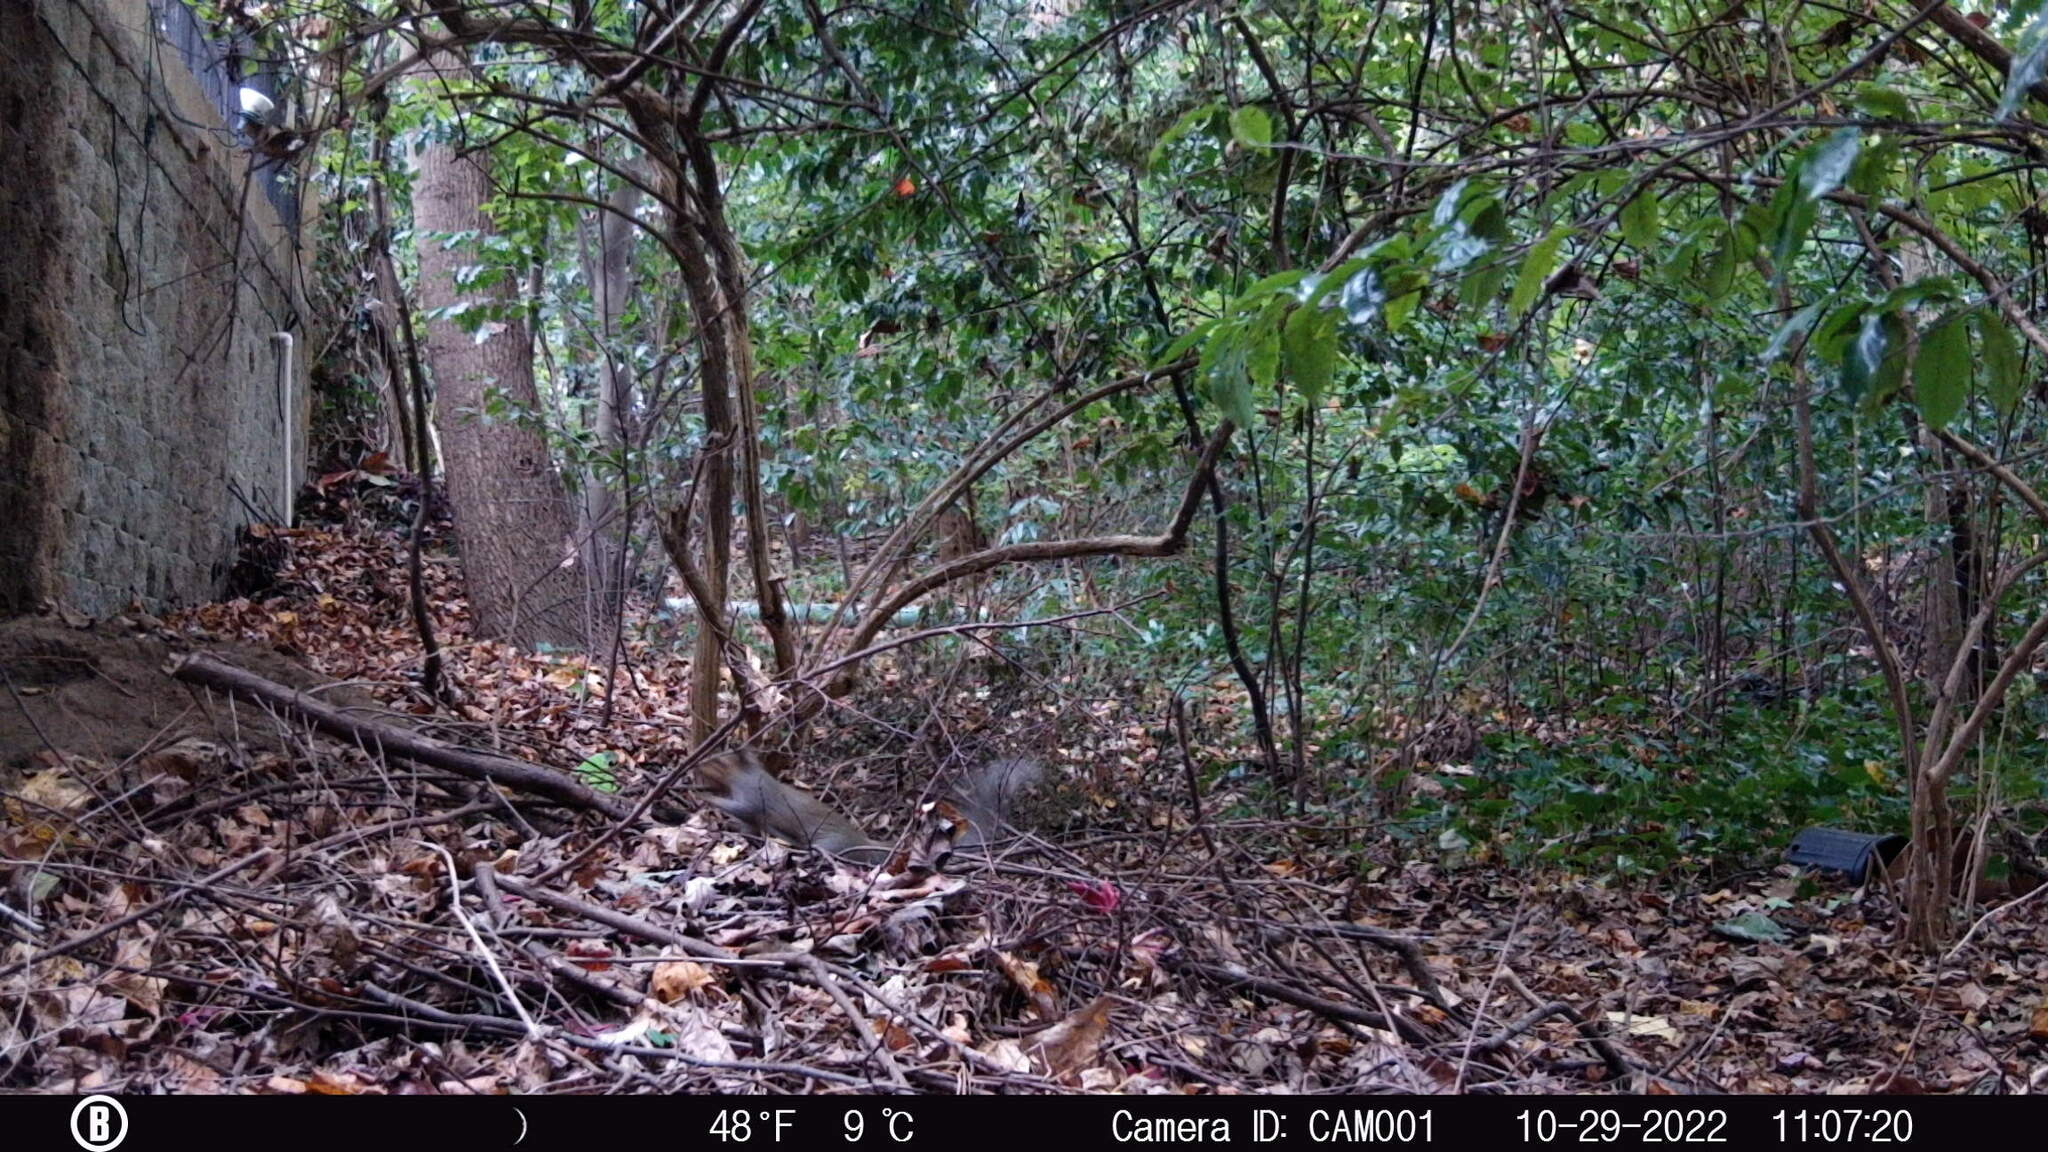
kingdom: Animalia
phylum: Chordata
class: Mammalia
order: Rodentia
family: Sciuridae
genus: Sciurus
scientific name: Sciurus carolinensis
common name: Eastern gray squirrel
